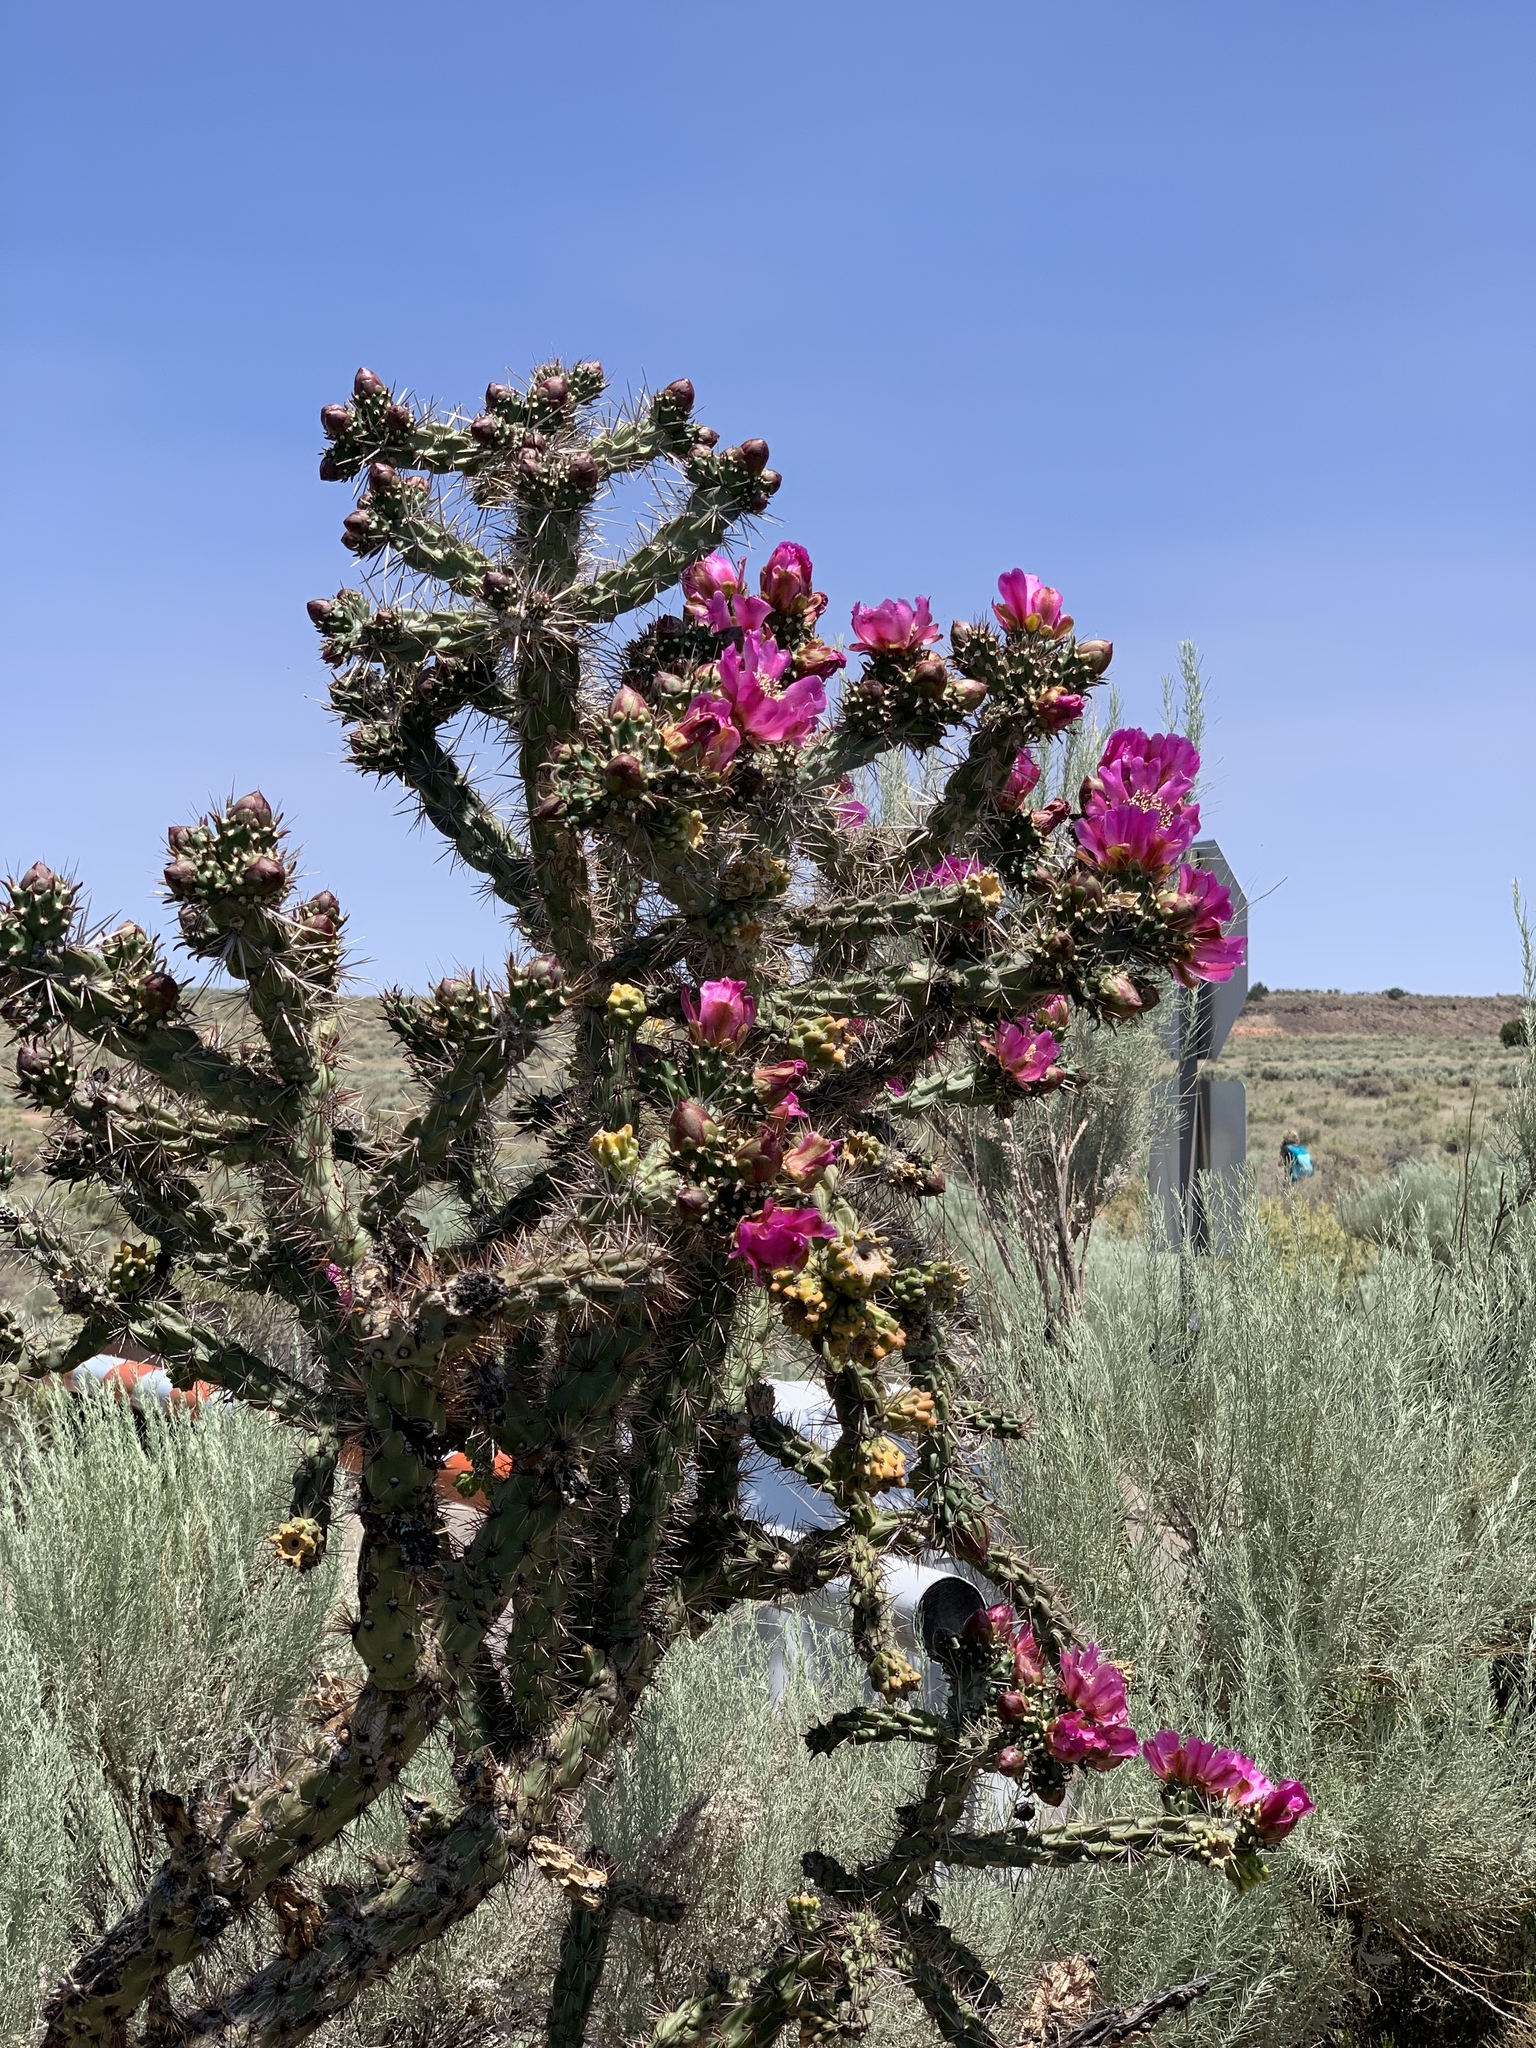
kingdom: Plantae
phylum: Tracheophyta
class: Magnoliopsida
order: Caryophyllales
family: Cactaceae
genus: Cylindropuntia
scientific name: Cylindropuntia imbricata
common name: Candelabrum cactus
